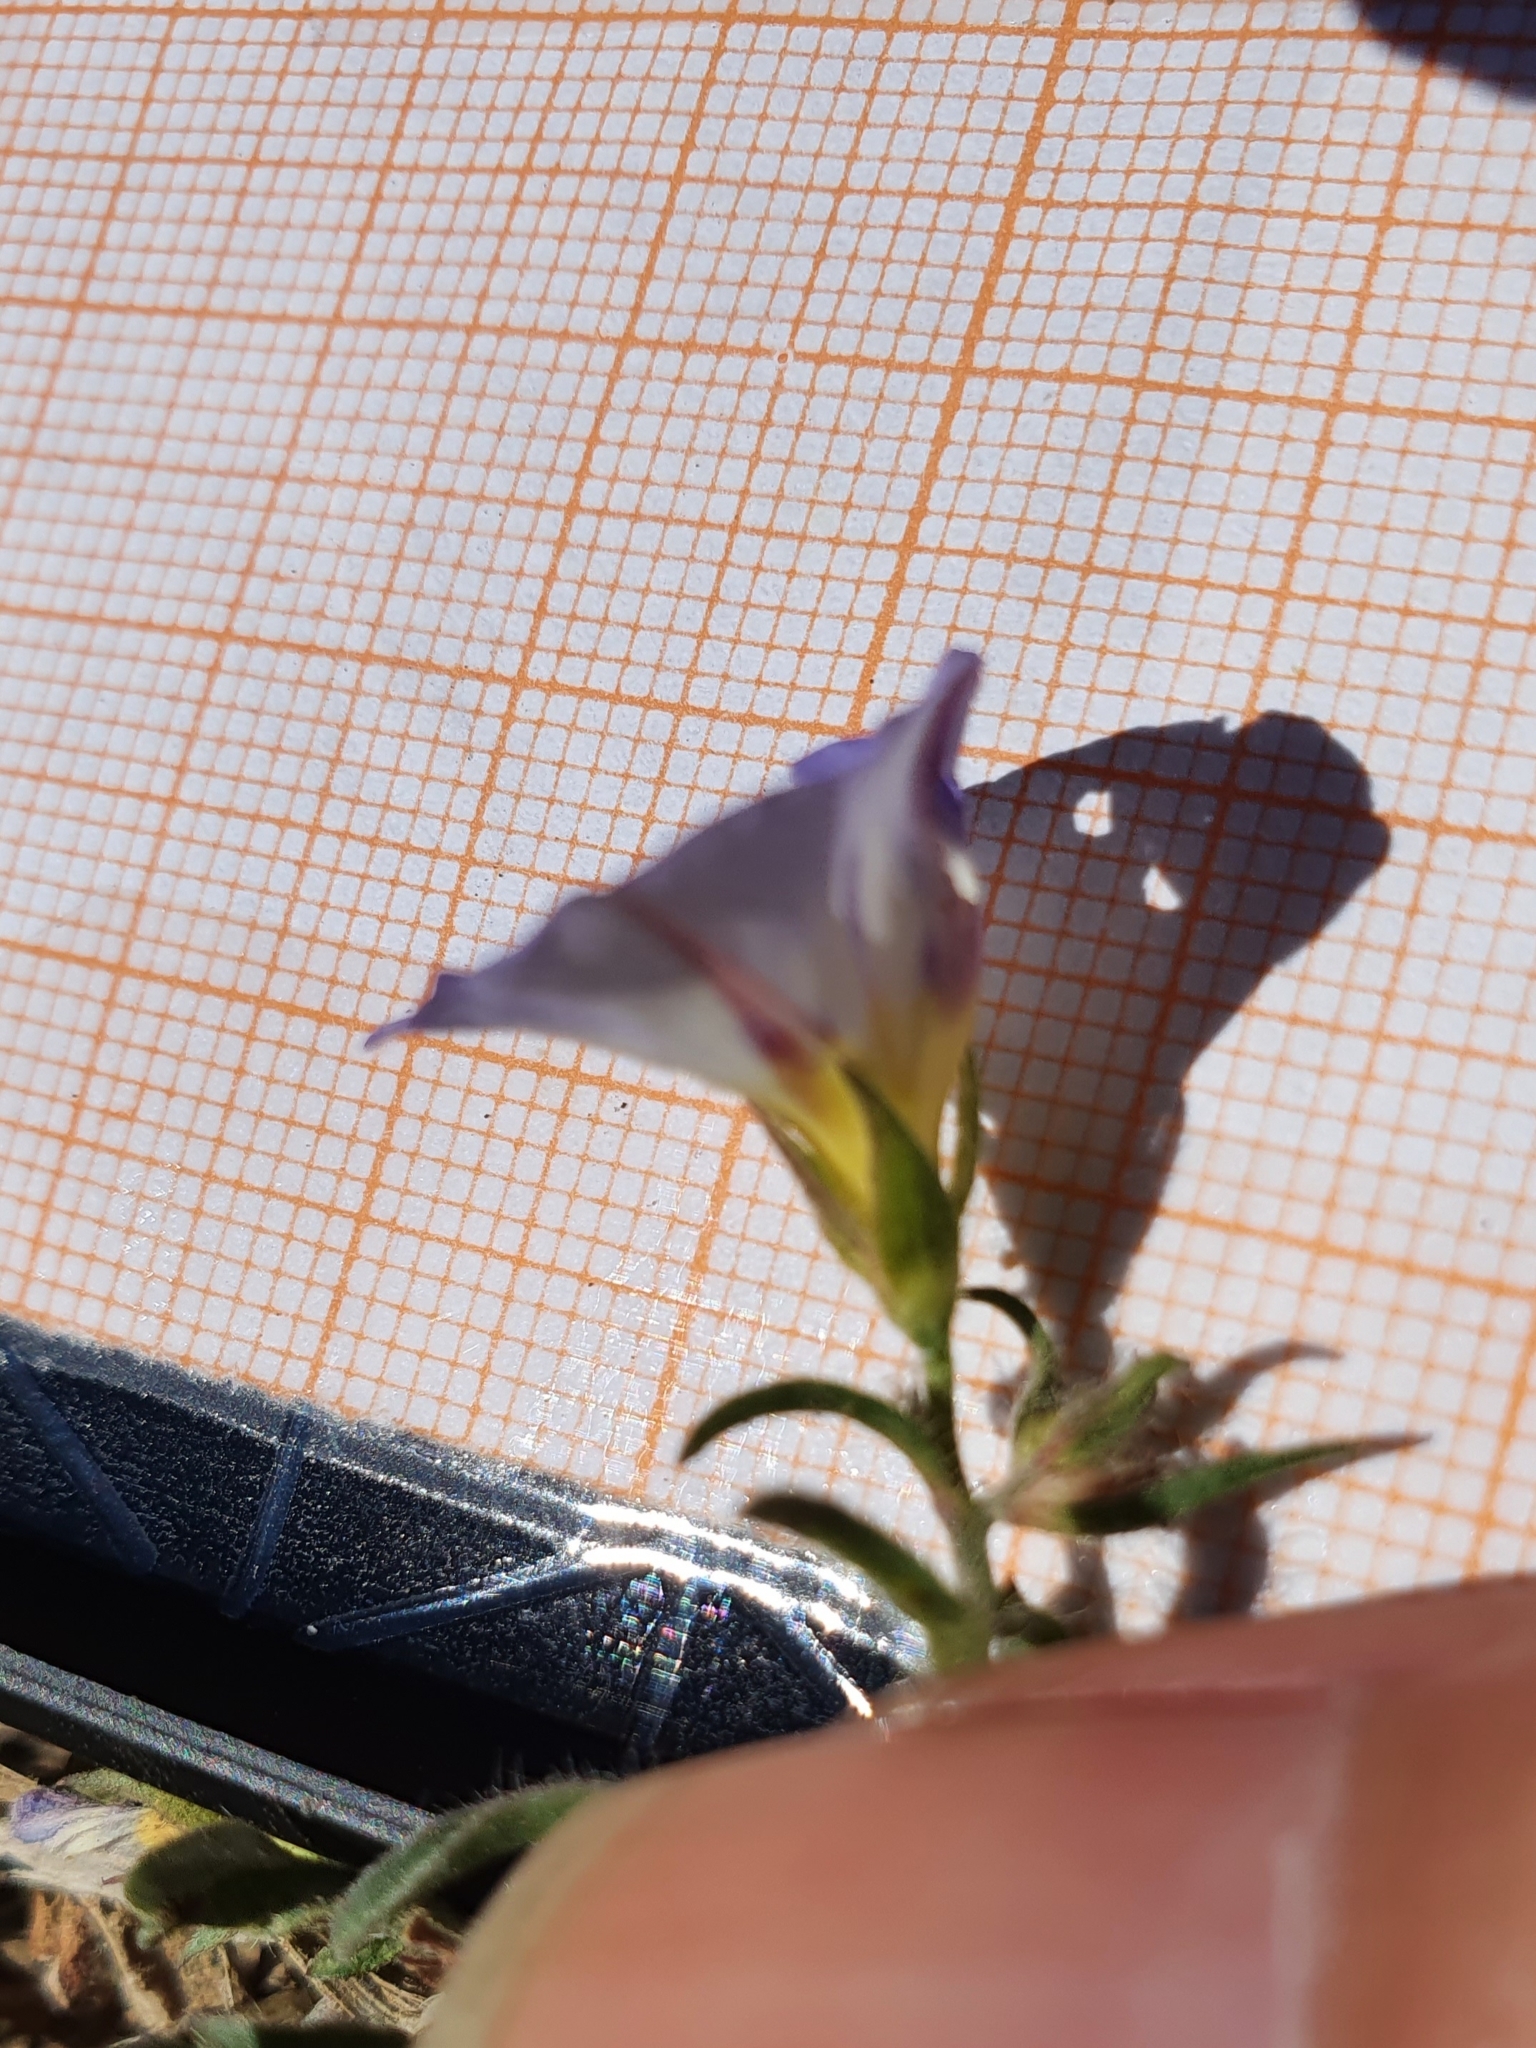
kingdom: Plantae
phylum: Tracheophyta
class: Magnoliopsida
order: Solanales
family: Convolvulaceae
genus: Convolvulus
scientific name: Convolvulus tricolor
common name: Dwarf morning-glory
